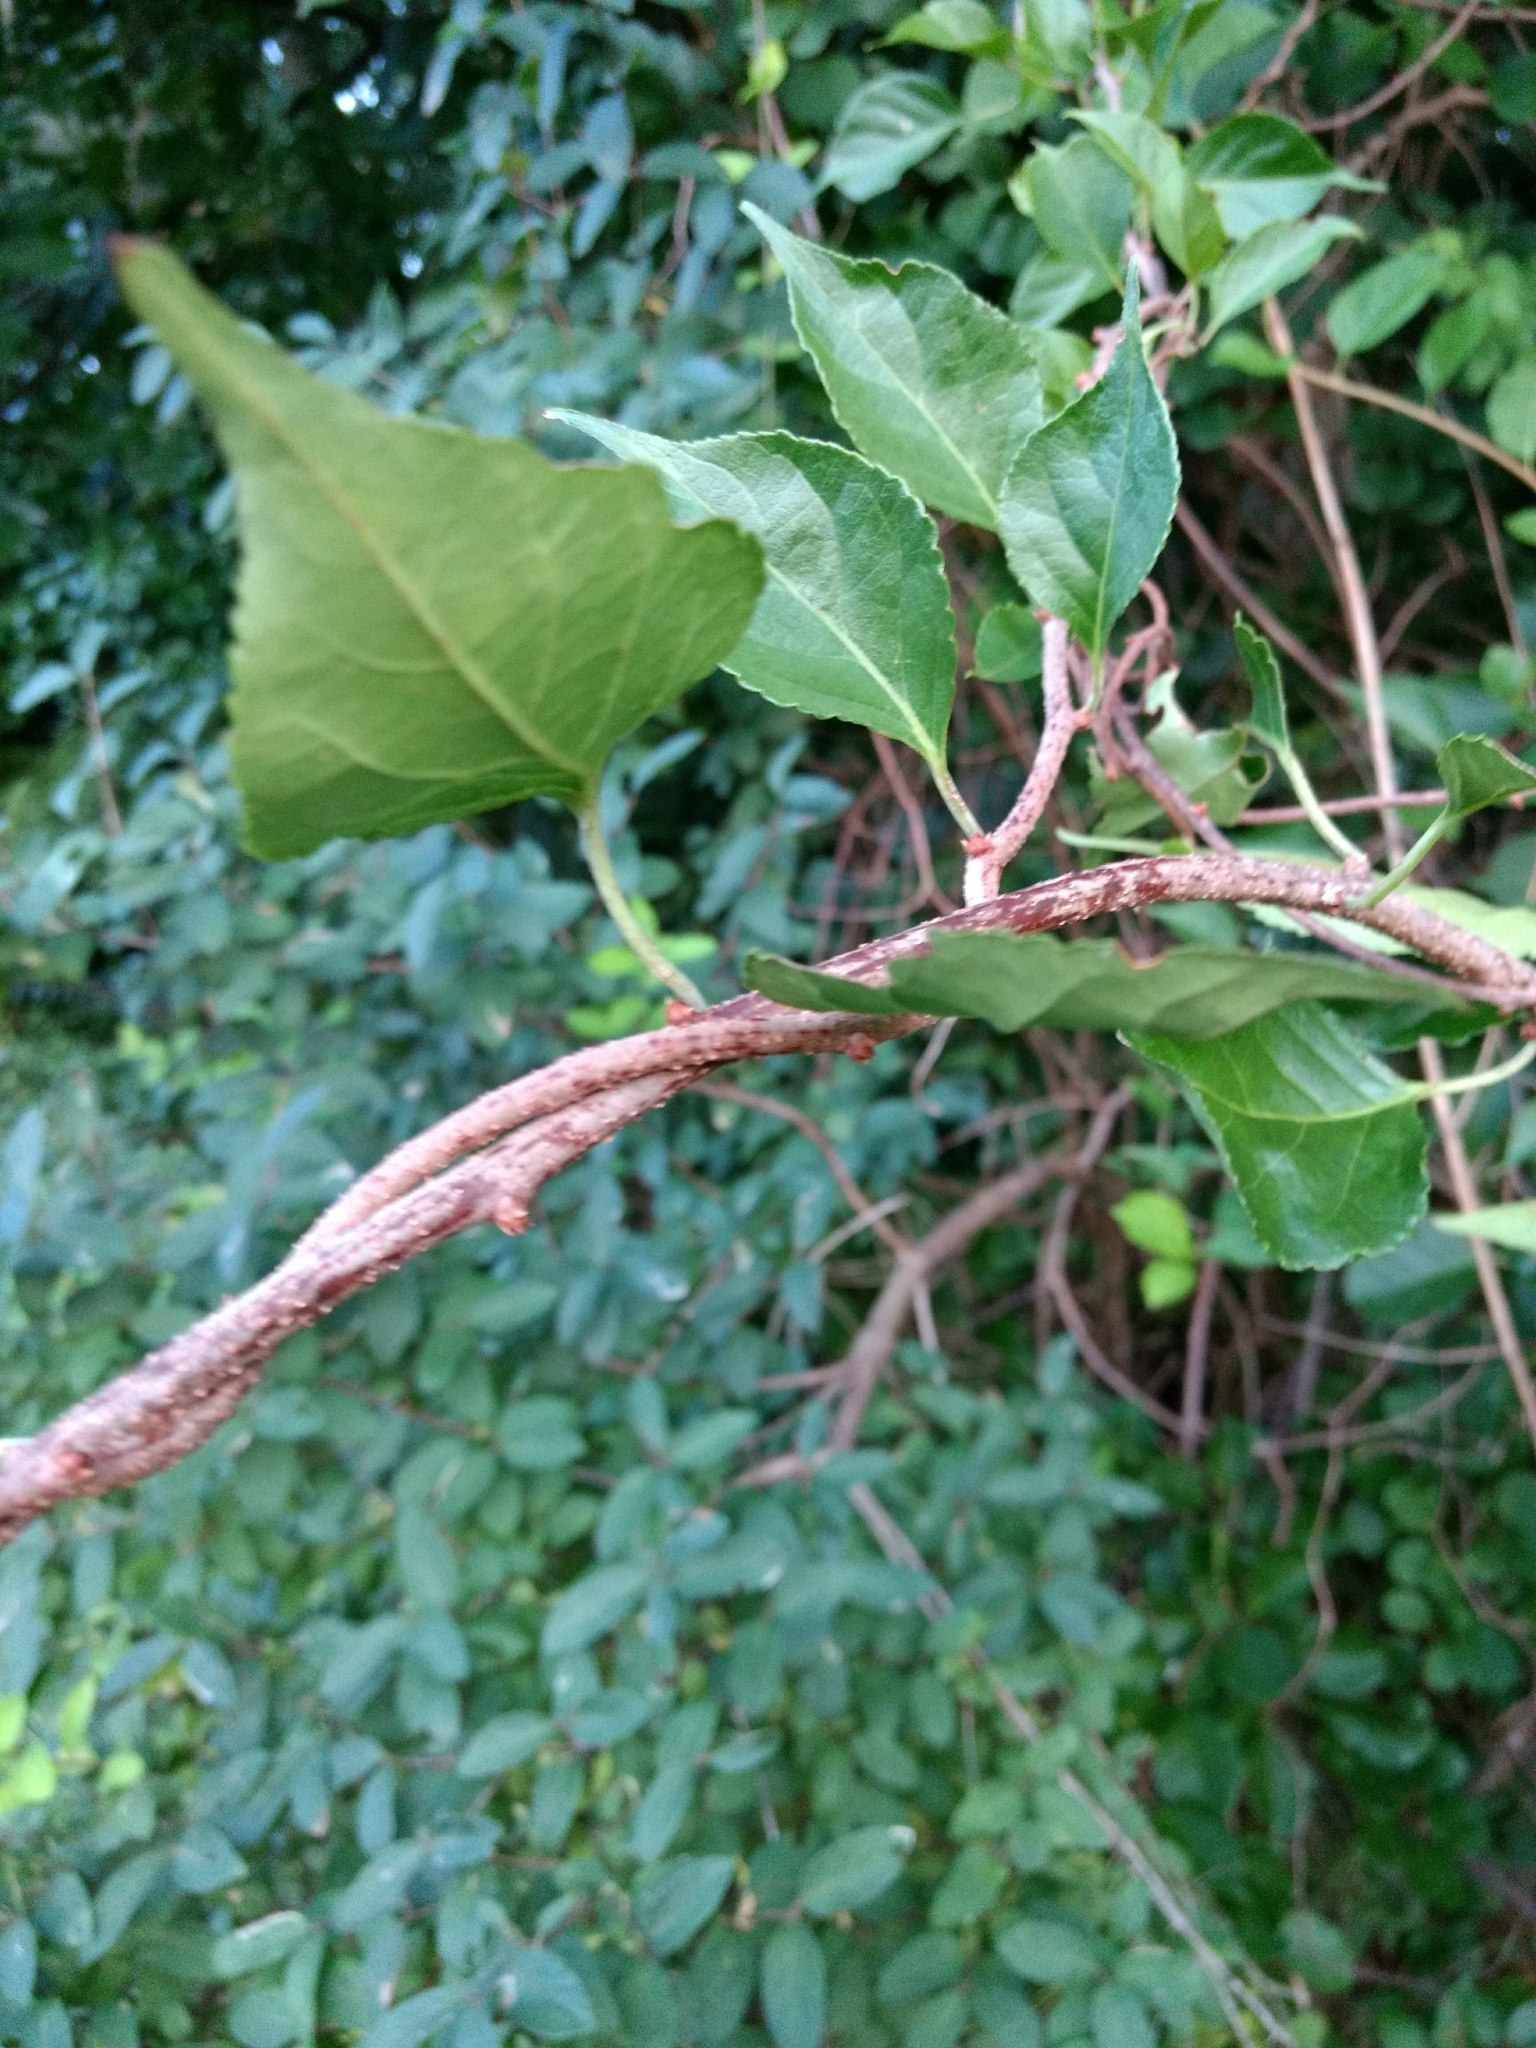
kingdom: Plantae
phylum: Tracheophyta
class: Magnoliopsida
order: Celastrales
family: Celastraceae
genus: Celastrus
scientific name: Celastrus orbiculatus
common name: Oriental bittersweet
